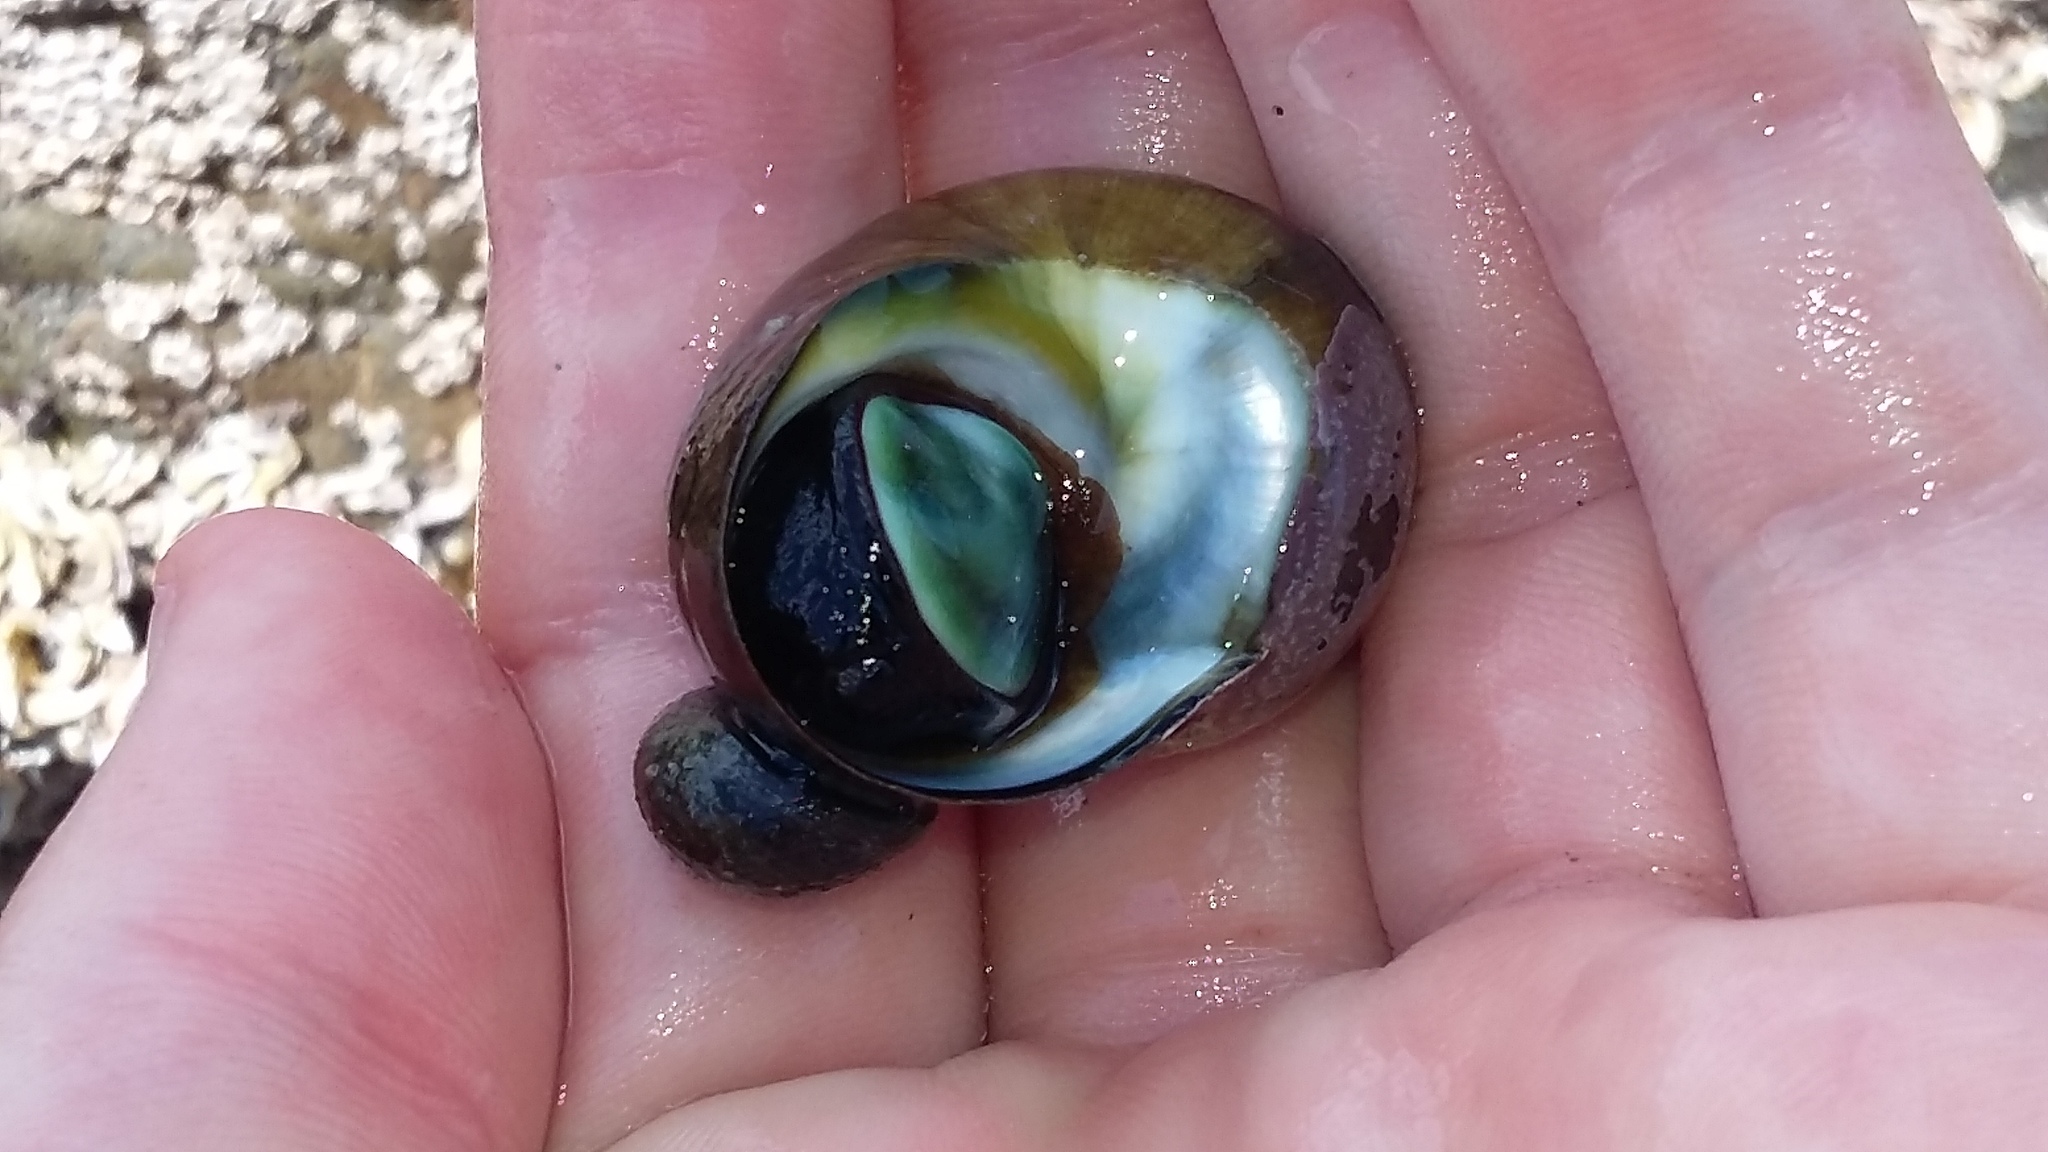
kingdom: Animalia
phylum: Mollusca
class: Gastropoda
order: Trochida
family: Turbinidae
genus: Lunella
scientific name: Lunella smaragda
